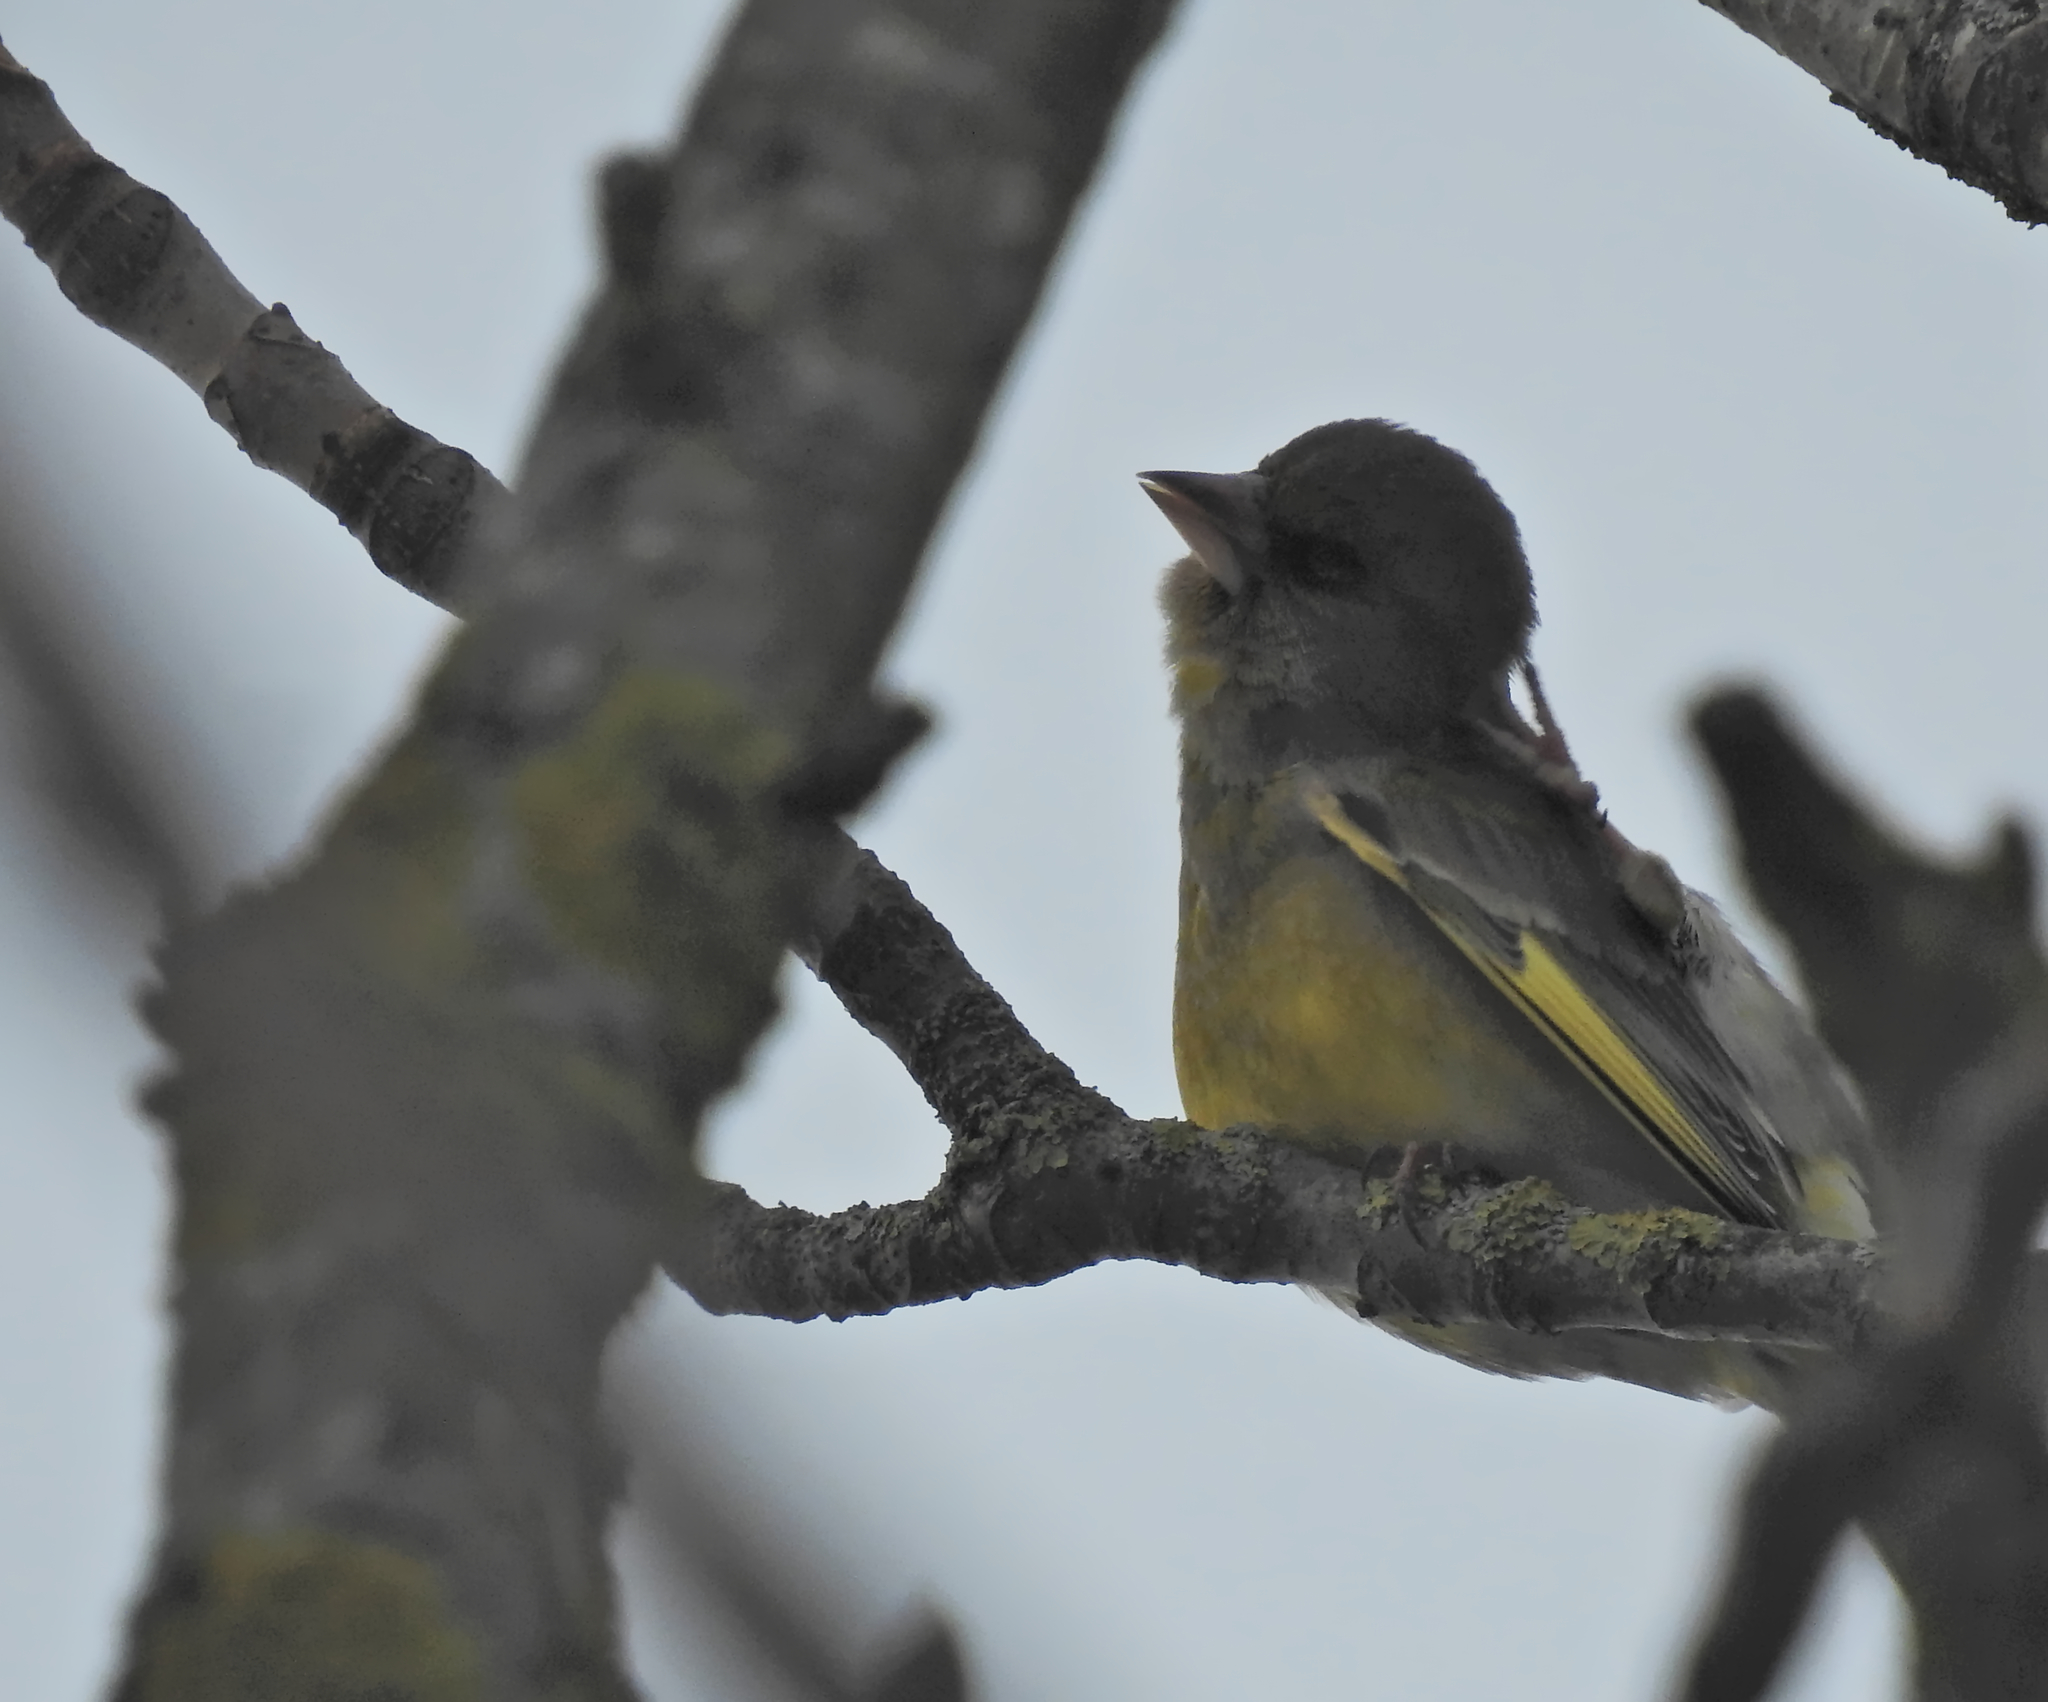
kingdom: Plantae
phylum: Tracheophyta
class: Liliopsida
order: Poales
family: Poaceae
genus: Chloris
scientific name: Chloris chloris
